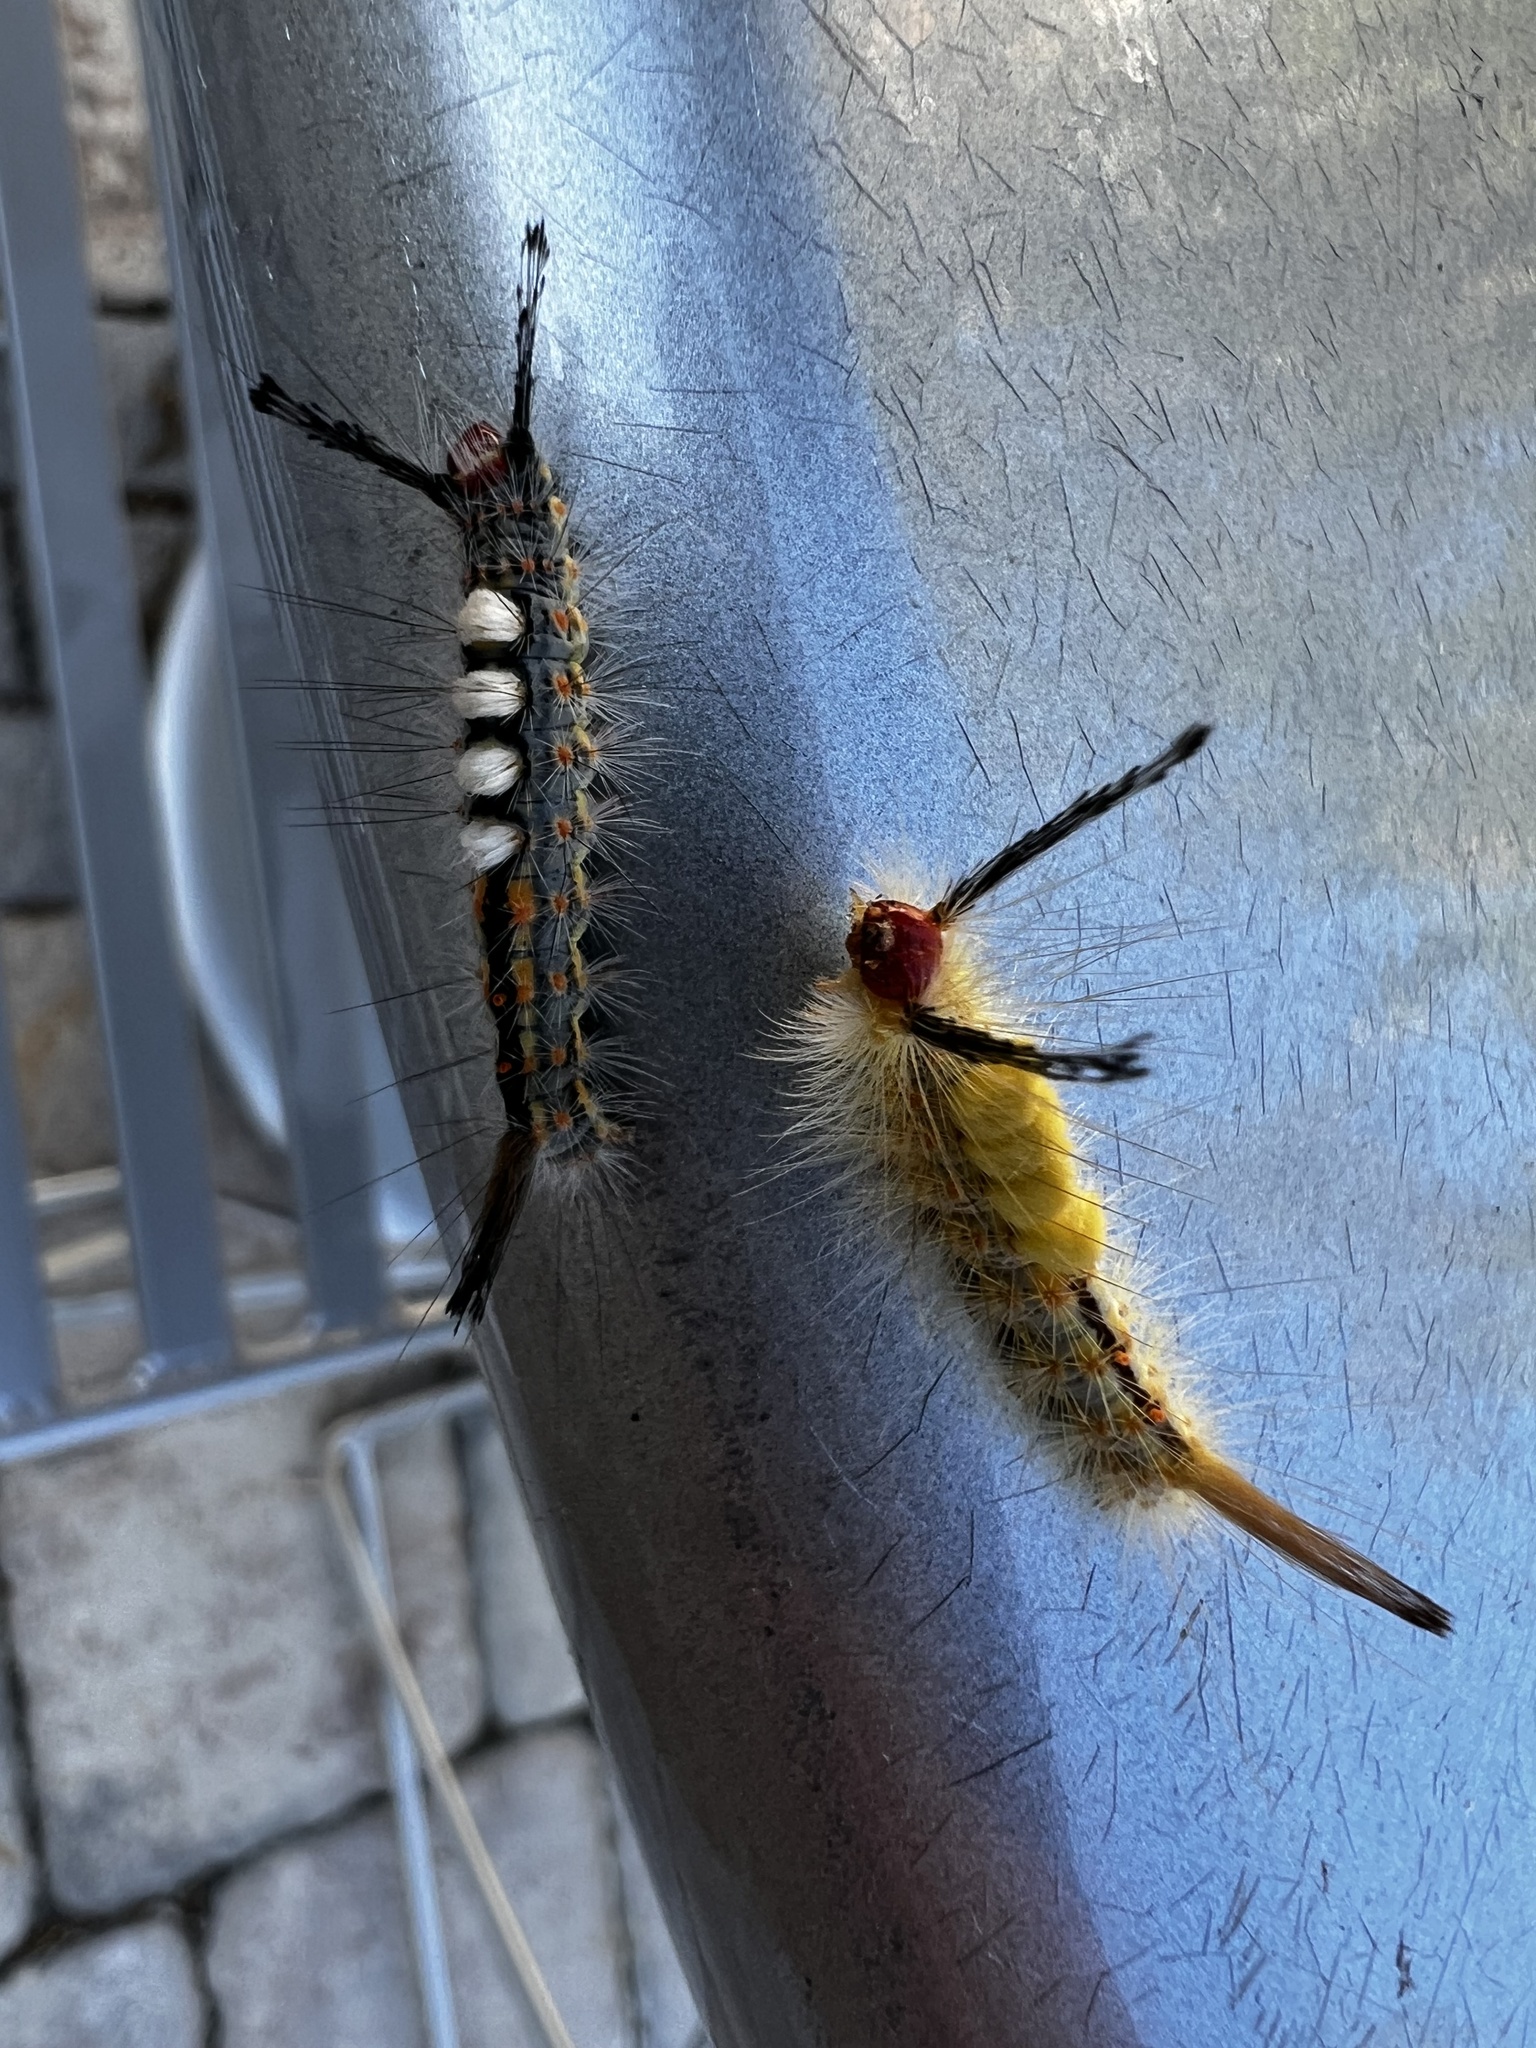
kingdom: Animalia
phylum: Arthropoda
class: Insecta
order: Lepidoptera
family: Erebidae
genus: Orgyia
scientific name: Orgyia detrita
